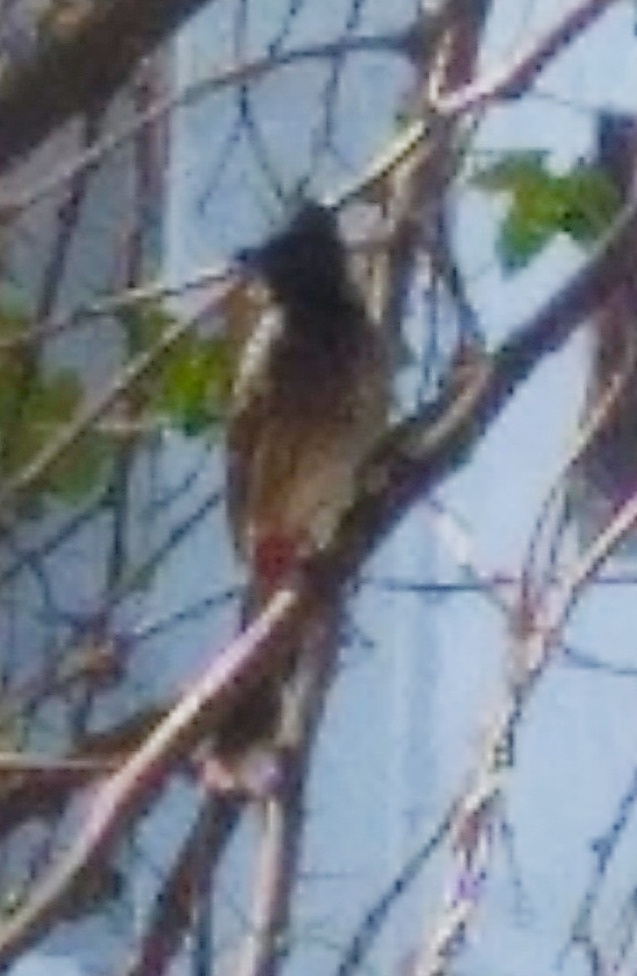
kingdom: Animalia
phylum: Chordata
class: Aves
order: Passeriformes
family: Pycnonotidae
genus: Pycnonotus
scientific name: Pycnonotus cafer
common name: Red-vented bulbul
